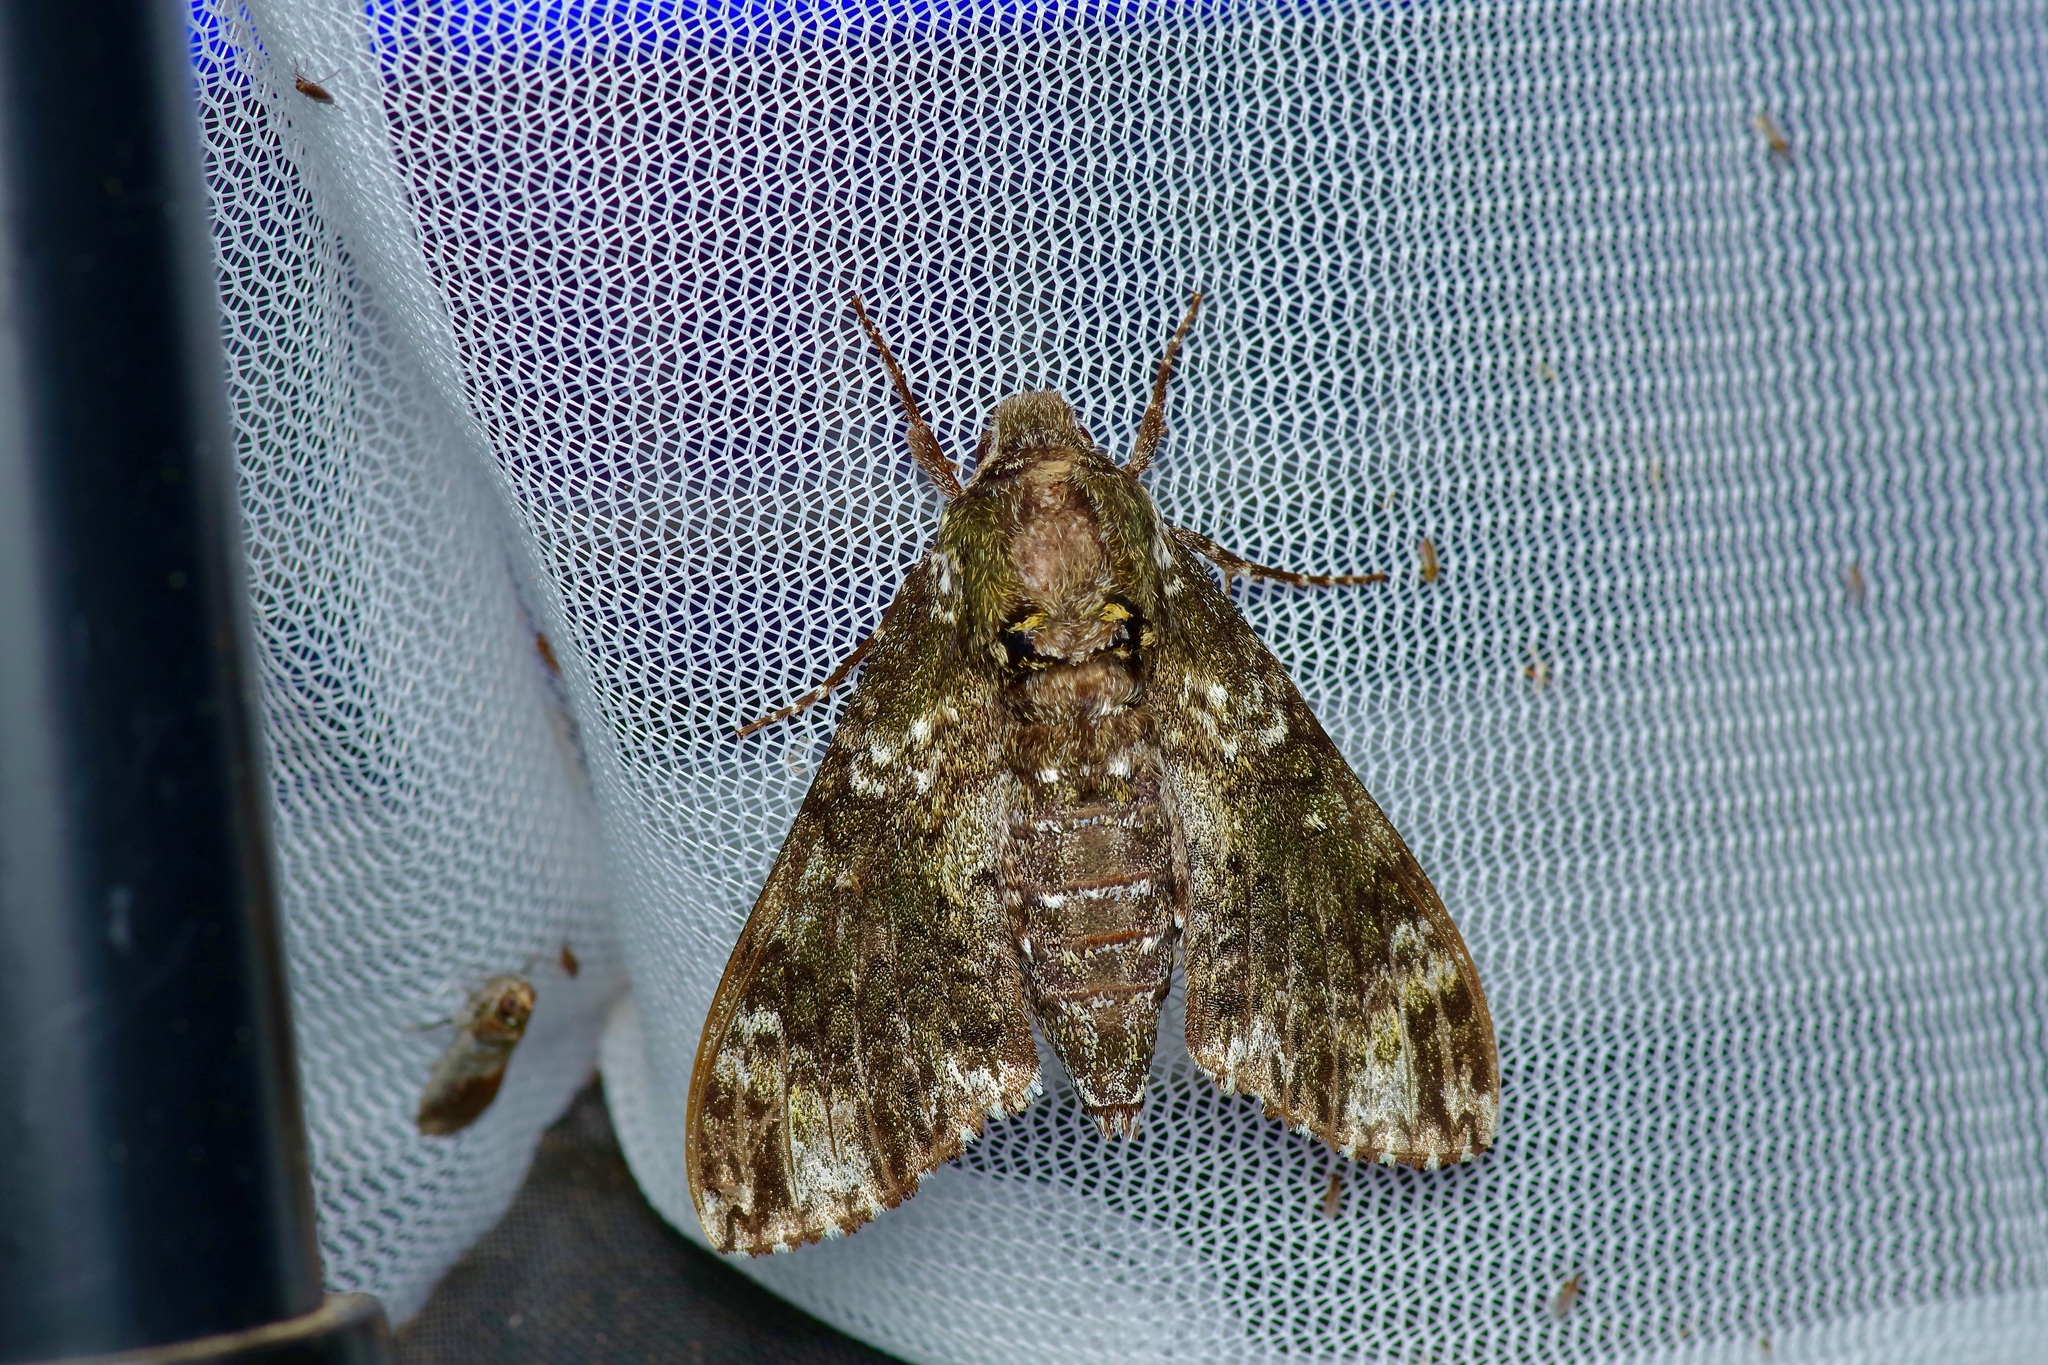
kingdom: Animalia
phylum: Arthropoda
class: Insecta
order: Lepidoptera
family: Sphingidae
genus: Dolba
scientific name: Dolba hyloeus
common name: Pawpaw sphinx
